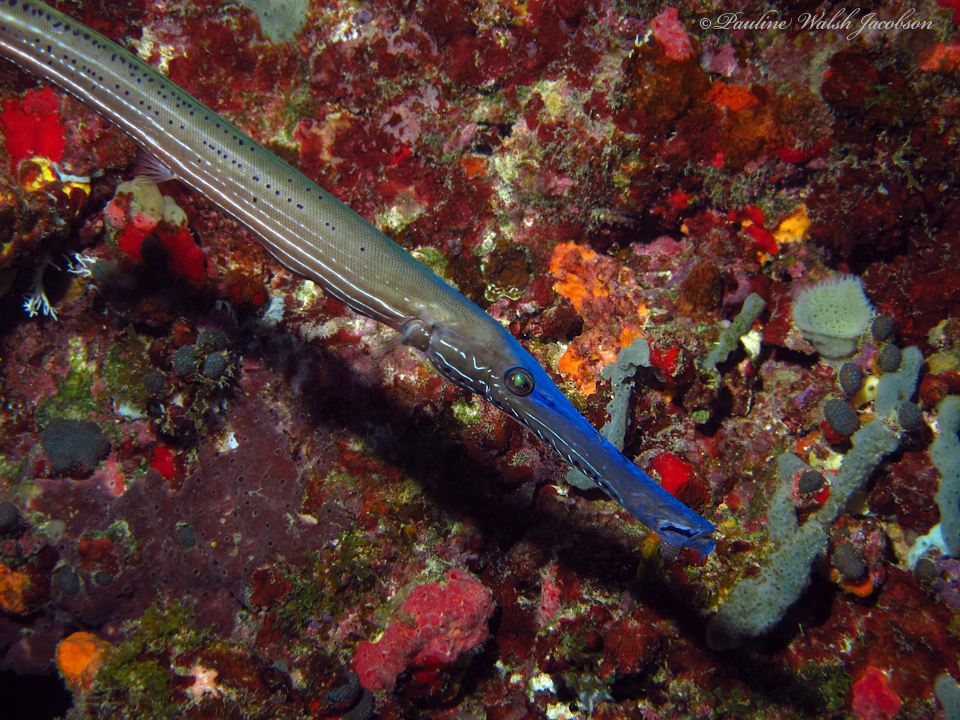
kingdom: Animalia
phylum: Chordata
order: Syngnathiformes
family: Aulostomidae
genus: Aulostomus
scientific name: Aulostomus maculatus
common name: West atlantic trumpetfish
